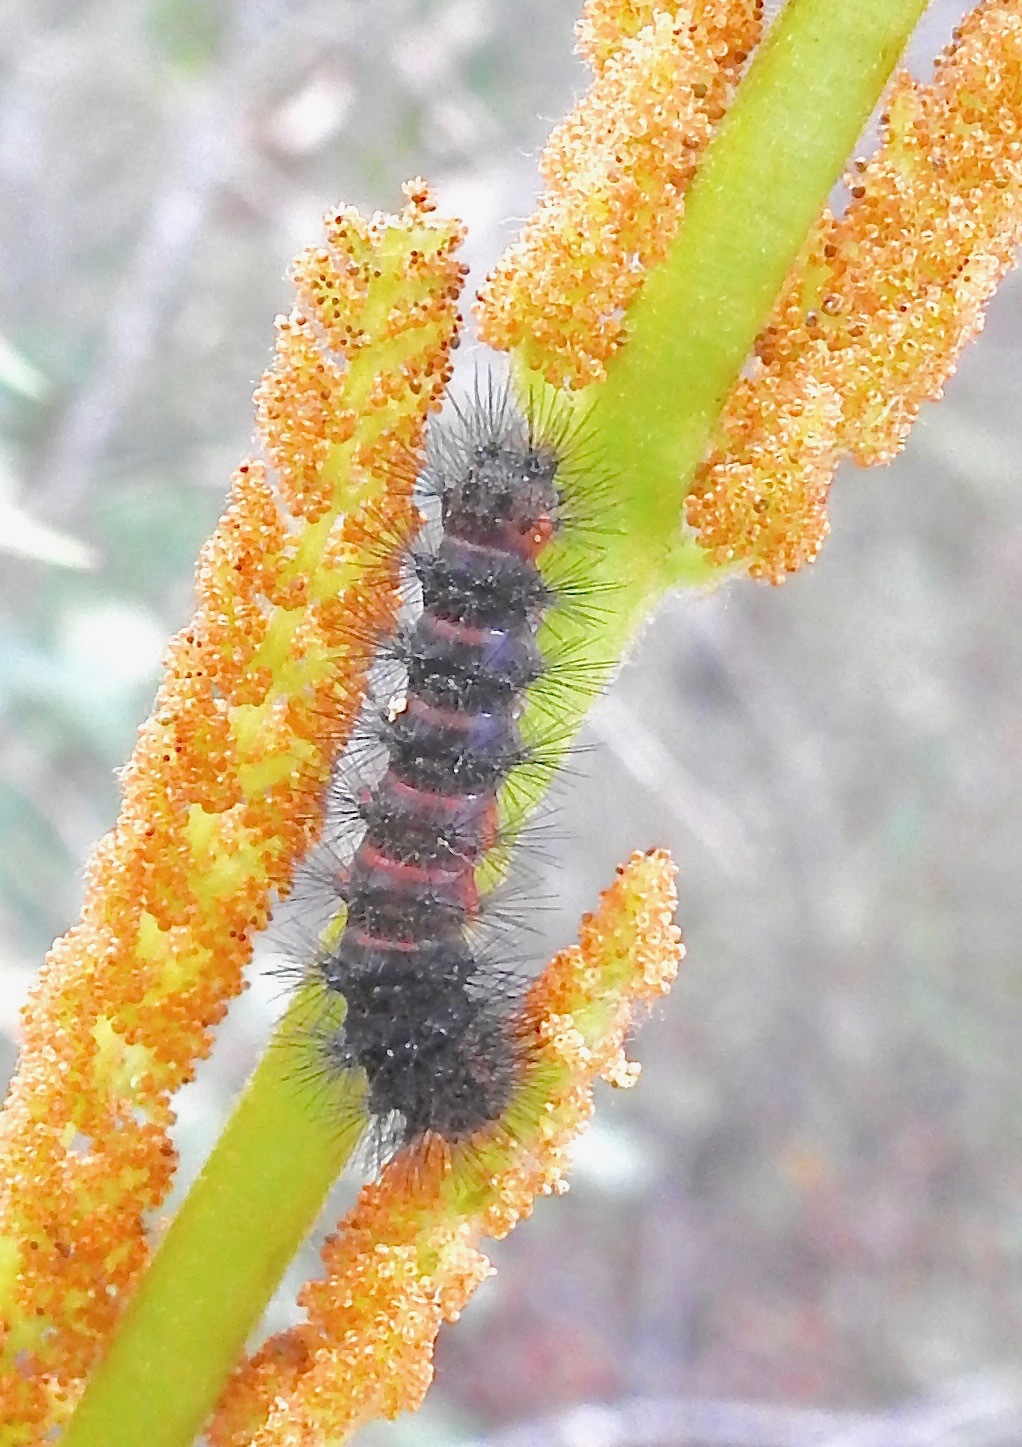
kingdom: Animalia
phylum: Arthropoda
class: Insecta
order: Lepidoptera
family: Erebidae
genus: Hypercompe
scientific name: Hypercompe scribonia
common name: Giant leopard moth
